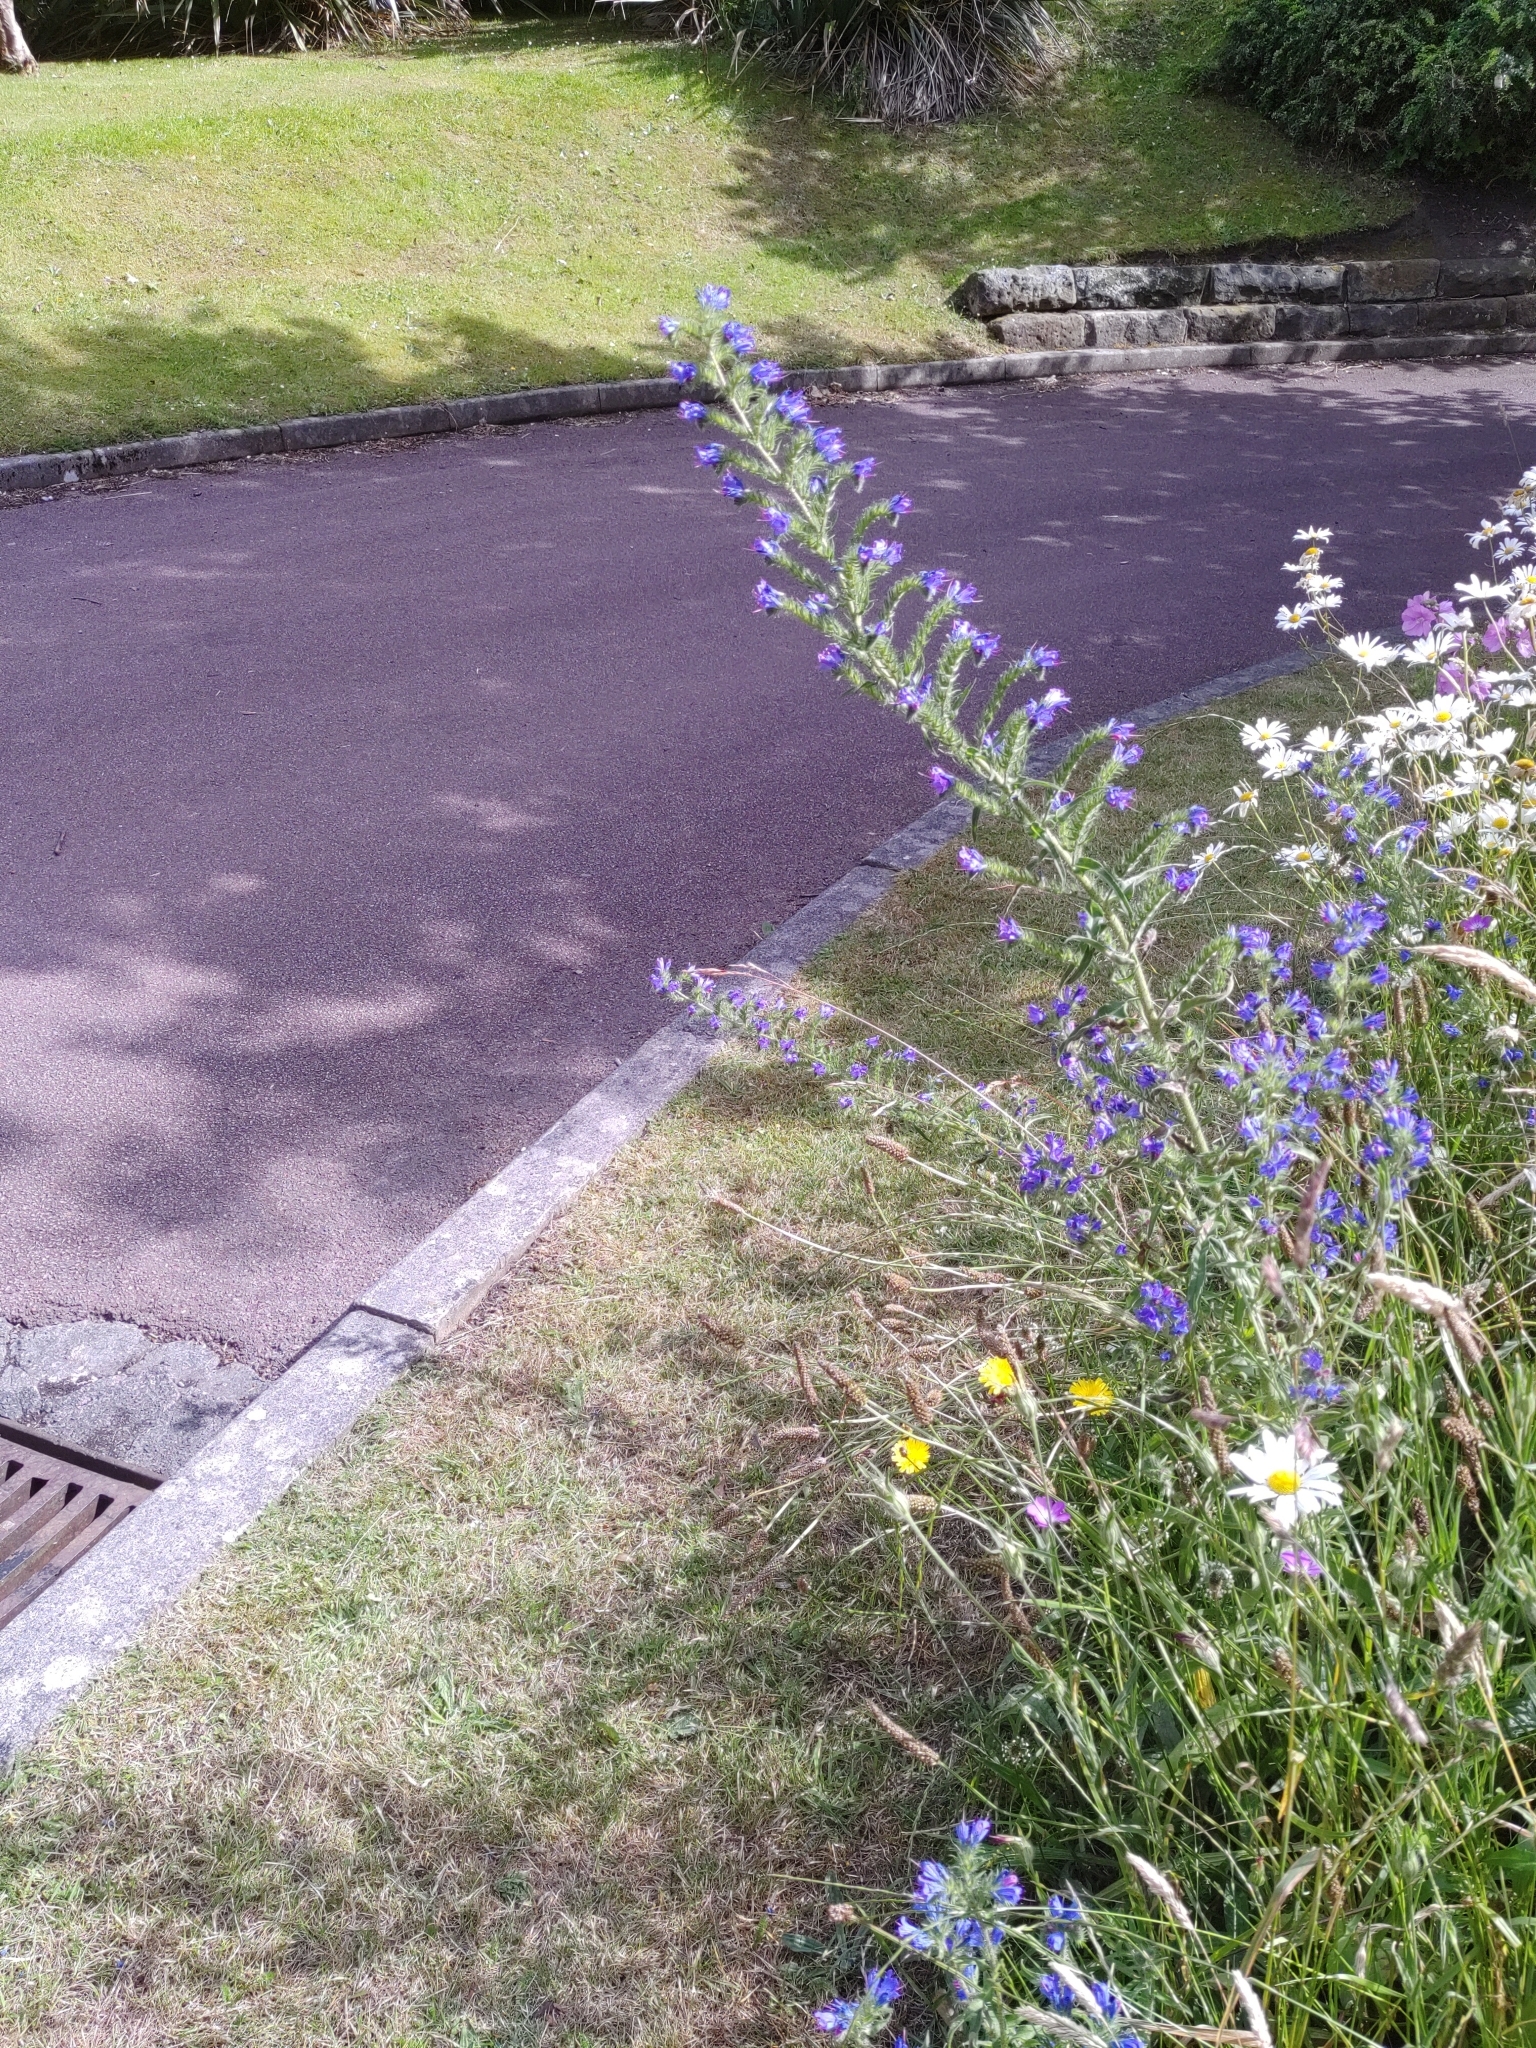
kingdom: Plantae
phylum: Tracheophyta
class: Magnoliopsida
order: Boraginales
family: Boraginaceae
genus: Echium
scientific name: Echium vulgare
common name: Common viper's bugloss
